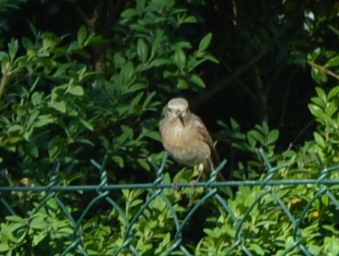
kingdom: Animalia
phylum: Chordata
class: Aves
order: Passeriformes
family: Muscicapidae
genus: Phoenicurus
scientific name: Phoenicurus phoenicurus
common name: Common redstart
